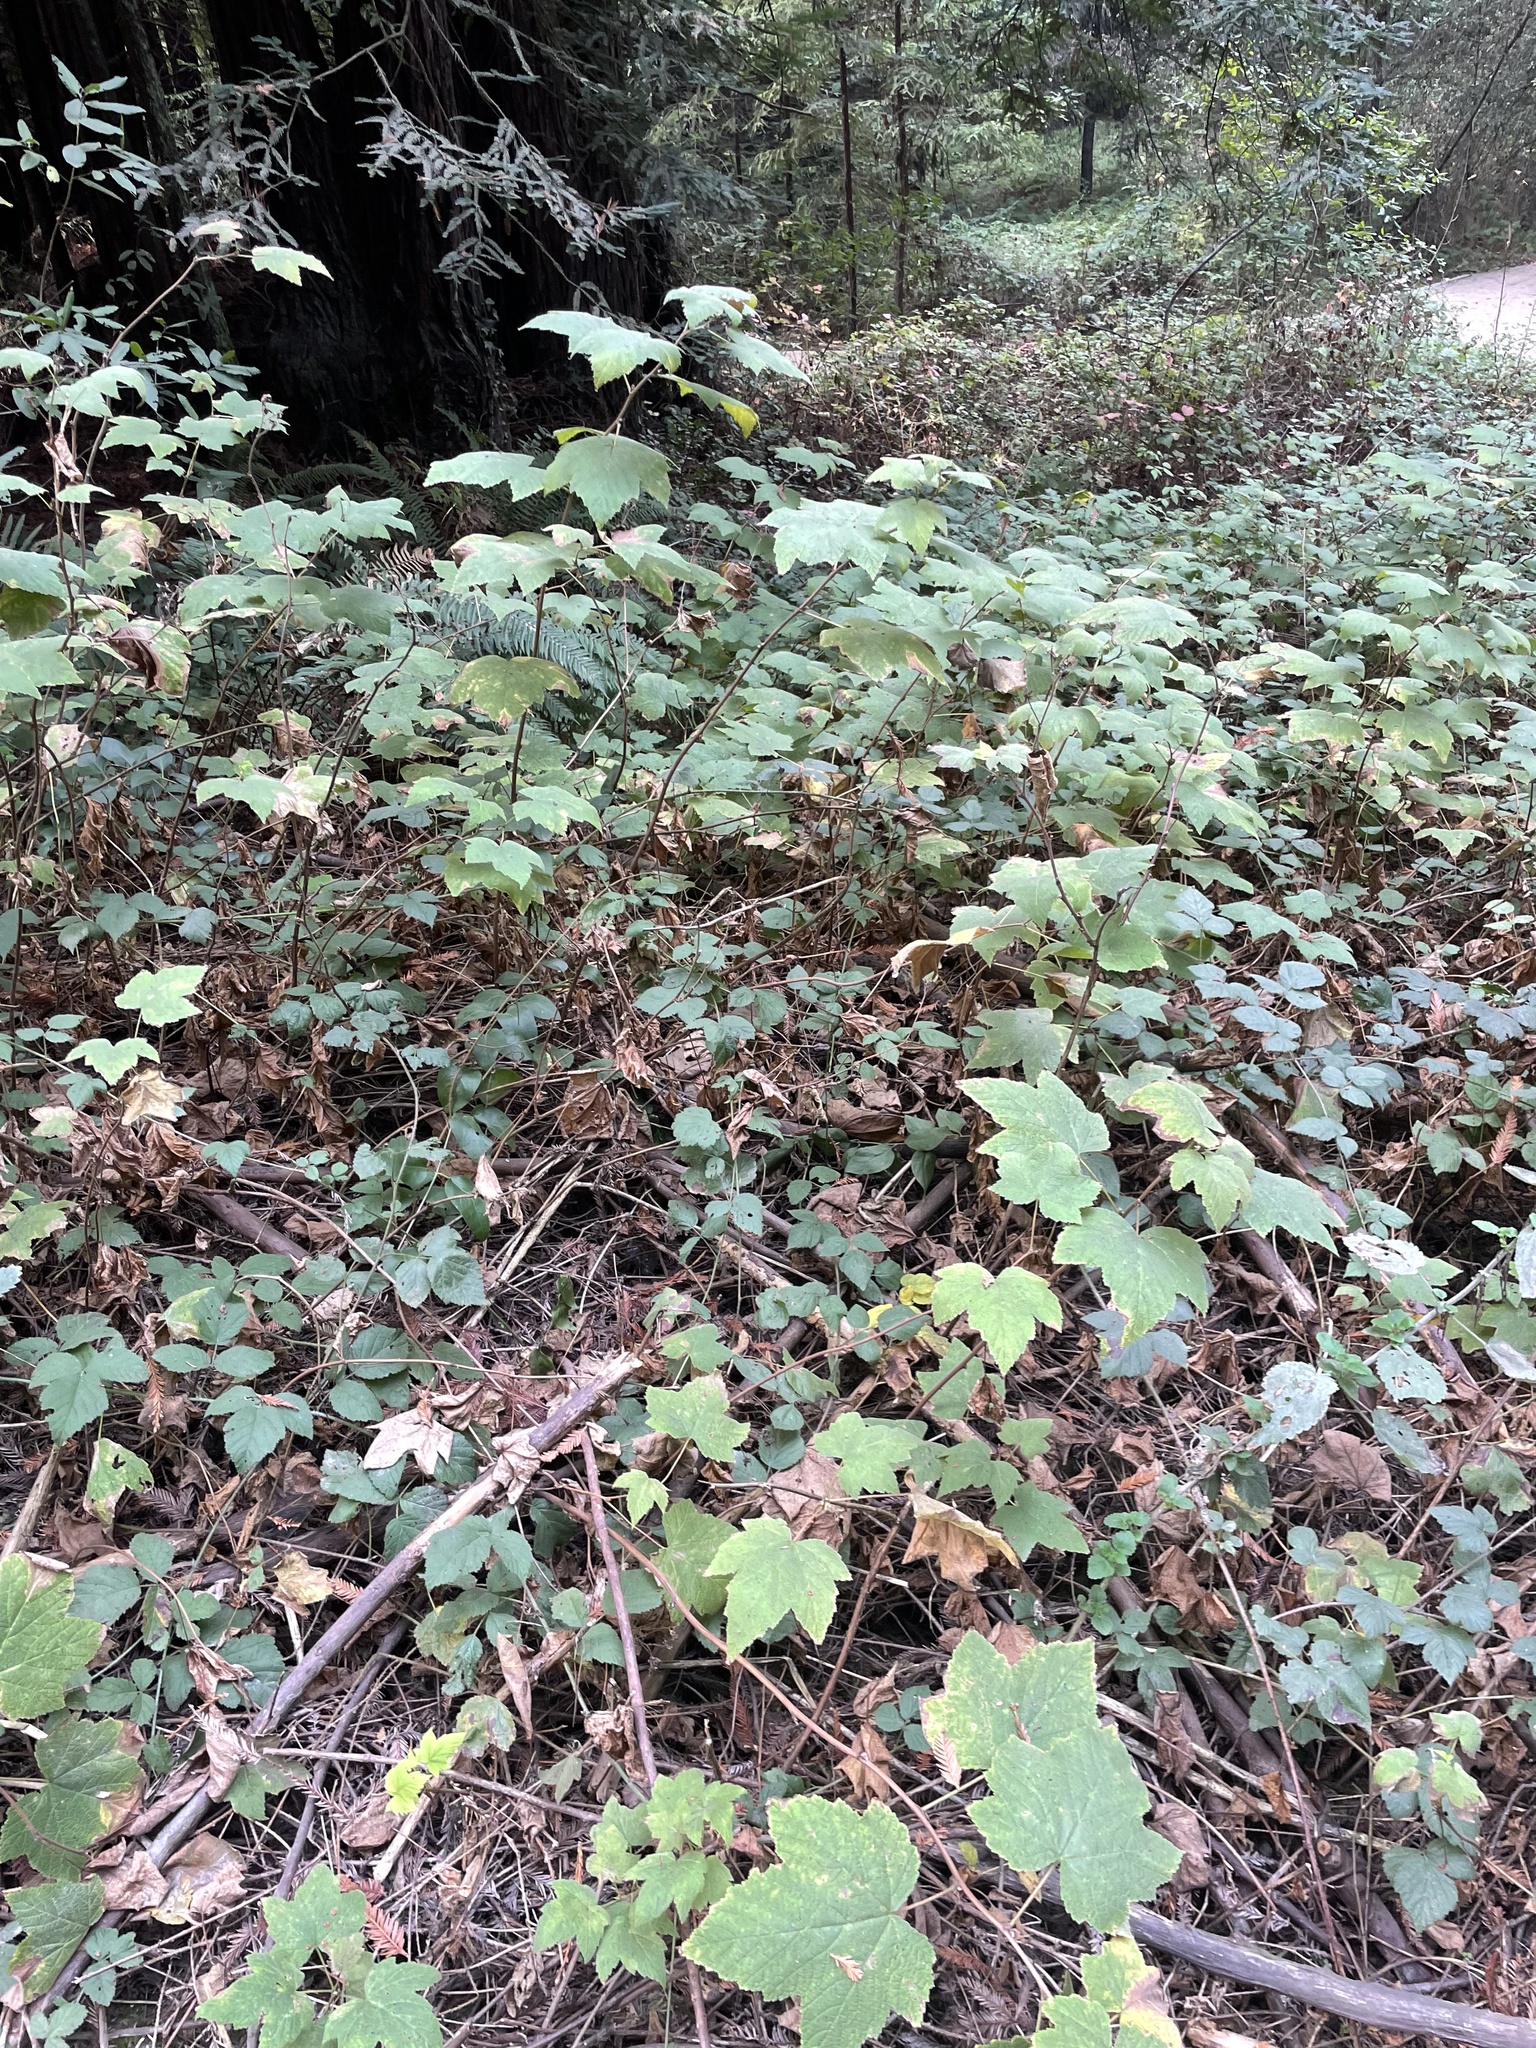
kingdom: Plantae
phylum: Tracheophyta
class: Magnoliopsida
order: Rosales
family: Rosaceae
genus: Rubus
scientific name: Rubus parviflorus
